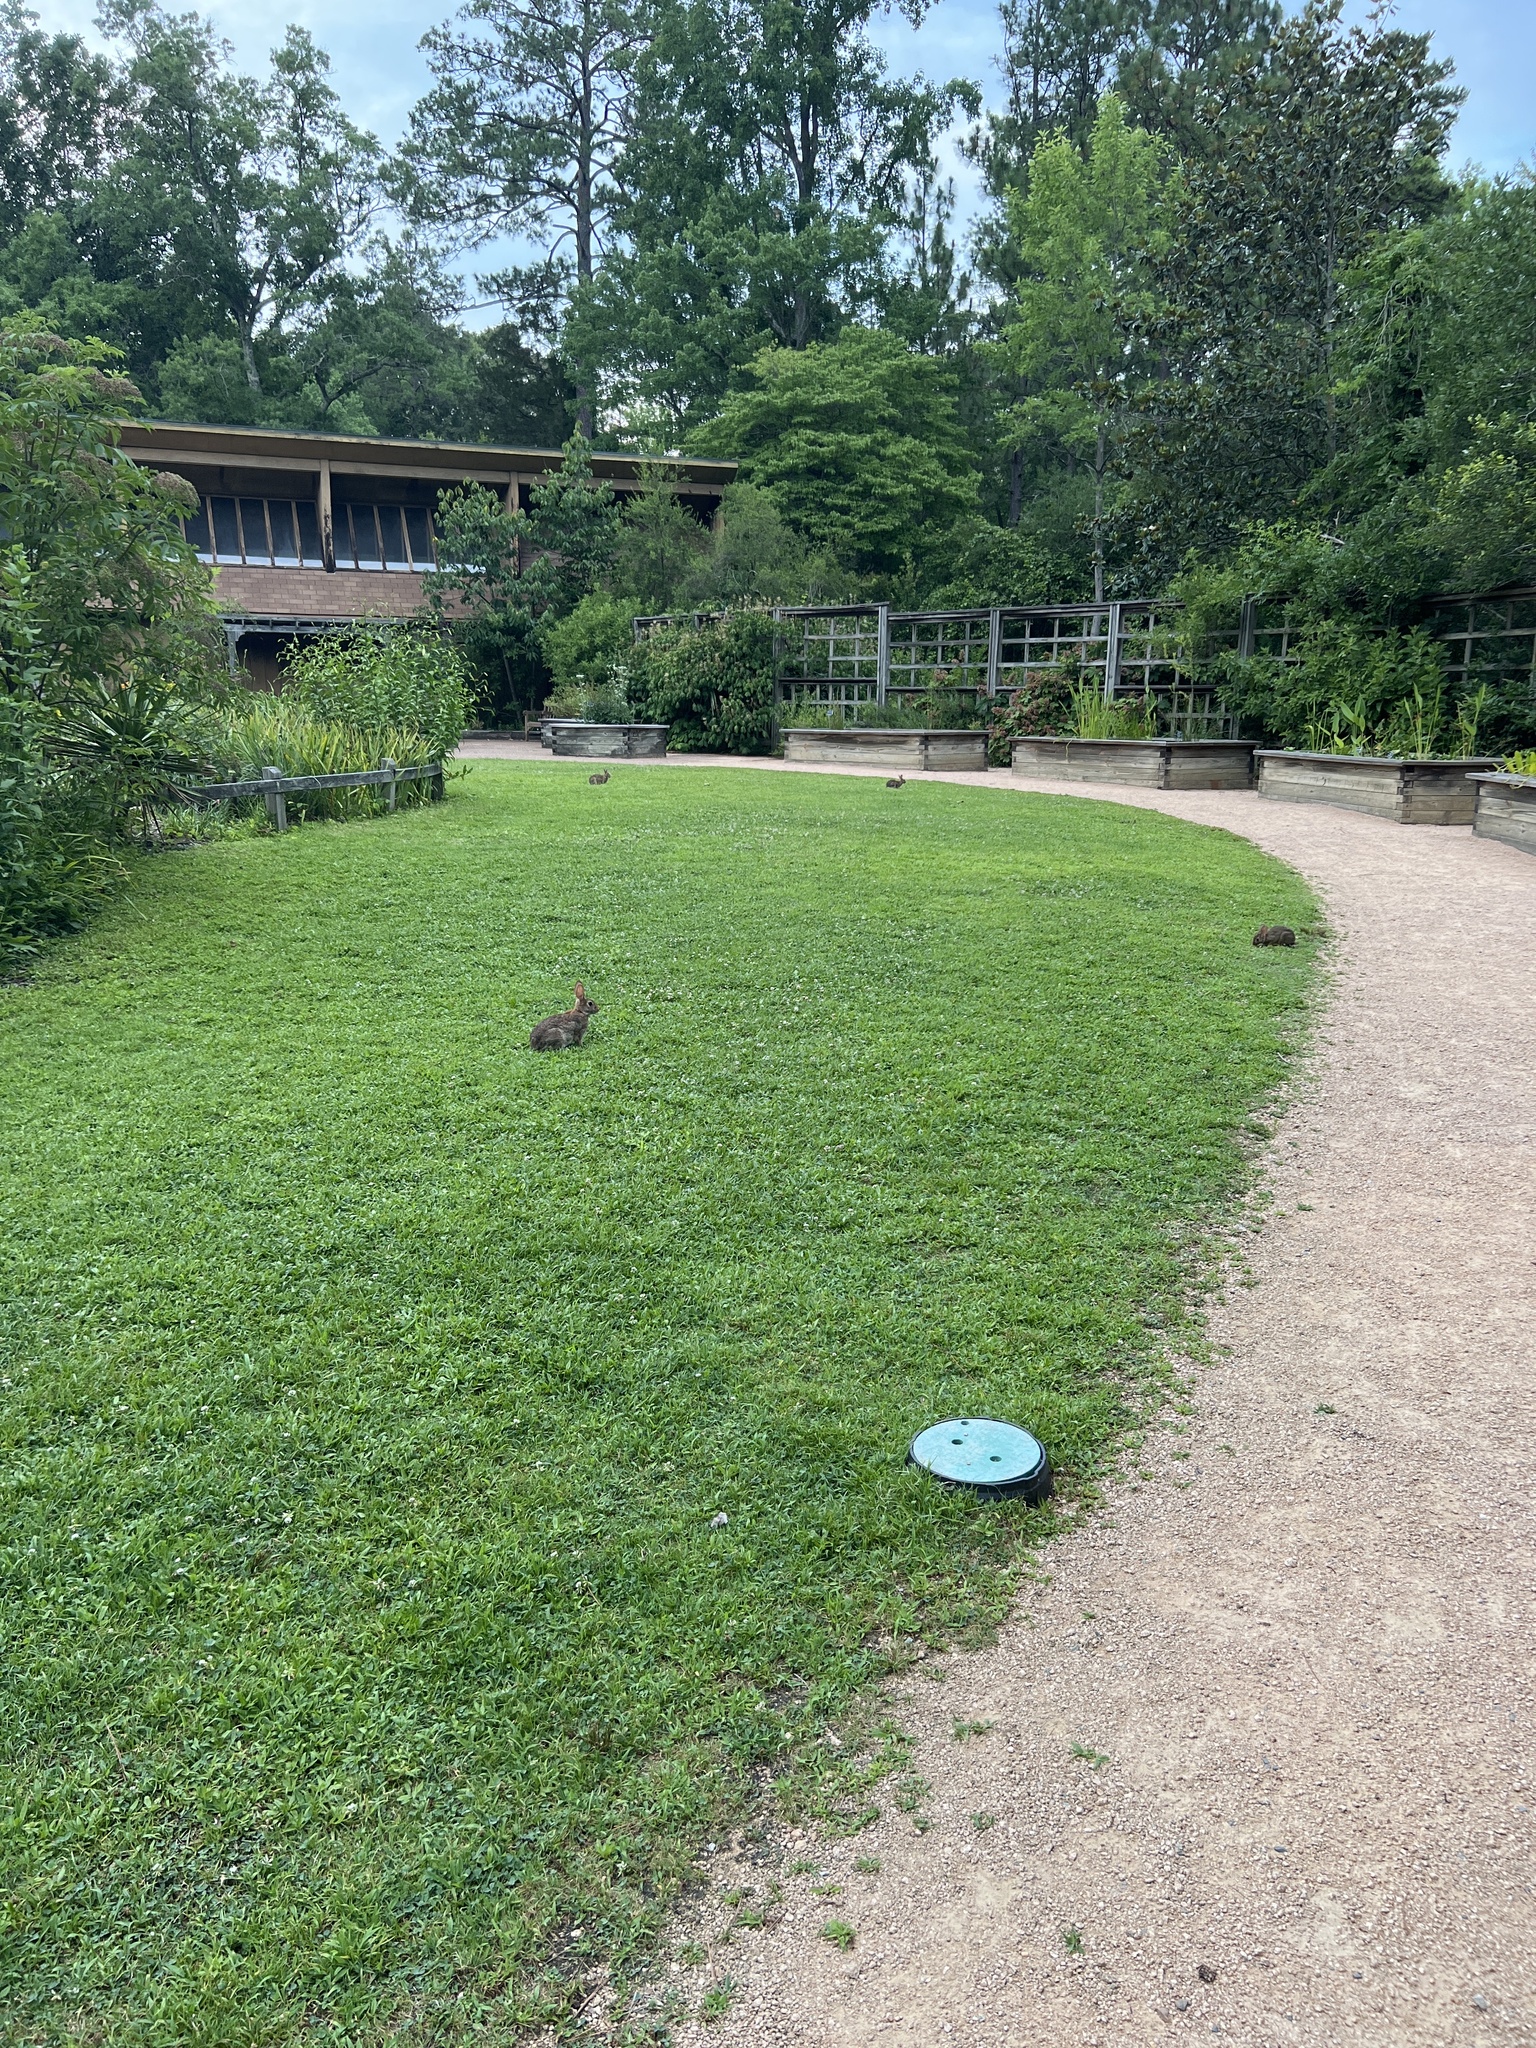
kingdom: Animalia
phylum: Chordata
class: Mammalia
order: Lagomorpha
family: Leporidae
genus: Sylvilagus
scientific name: Sylvilagus floridanus
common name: Eastern cottontail
